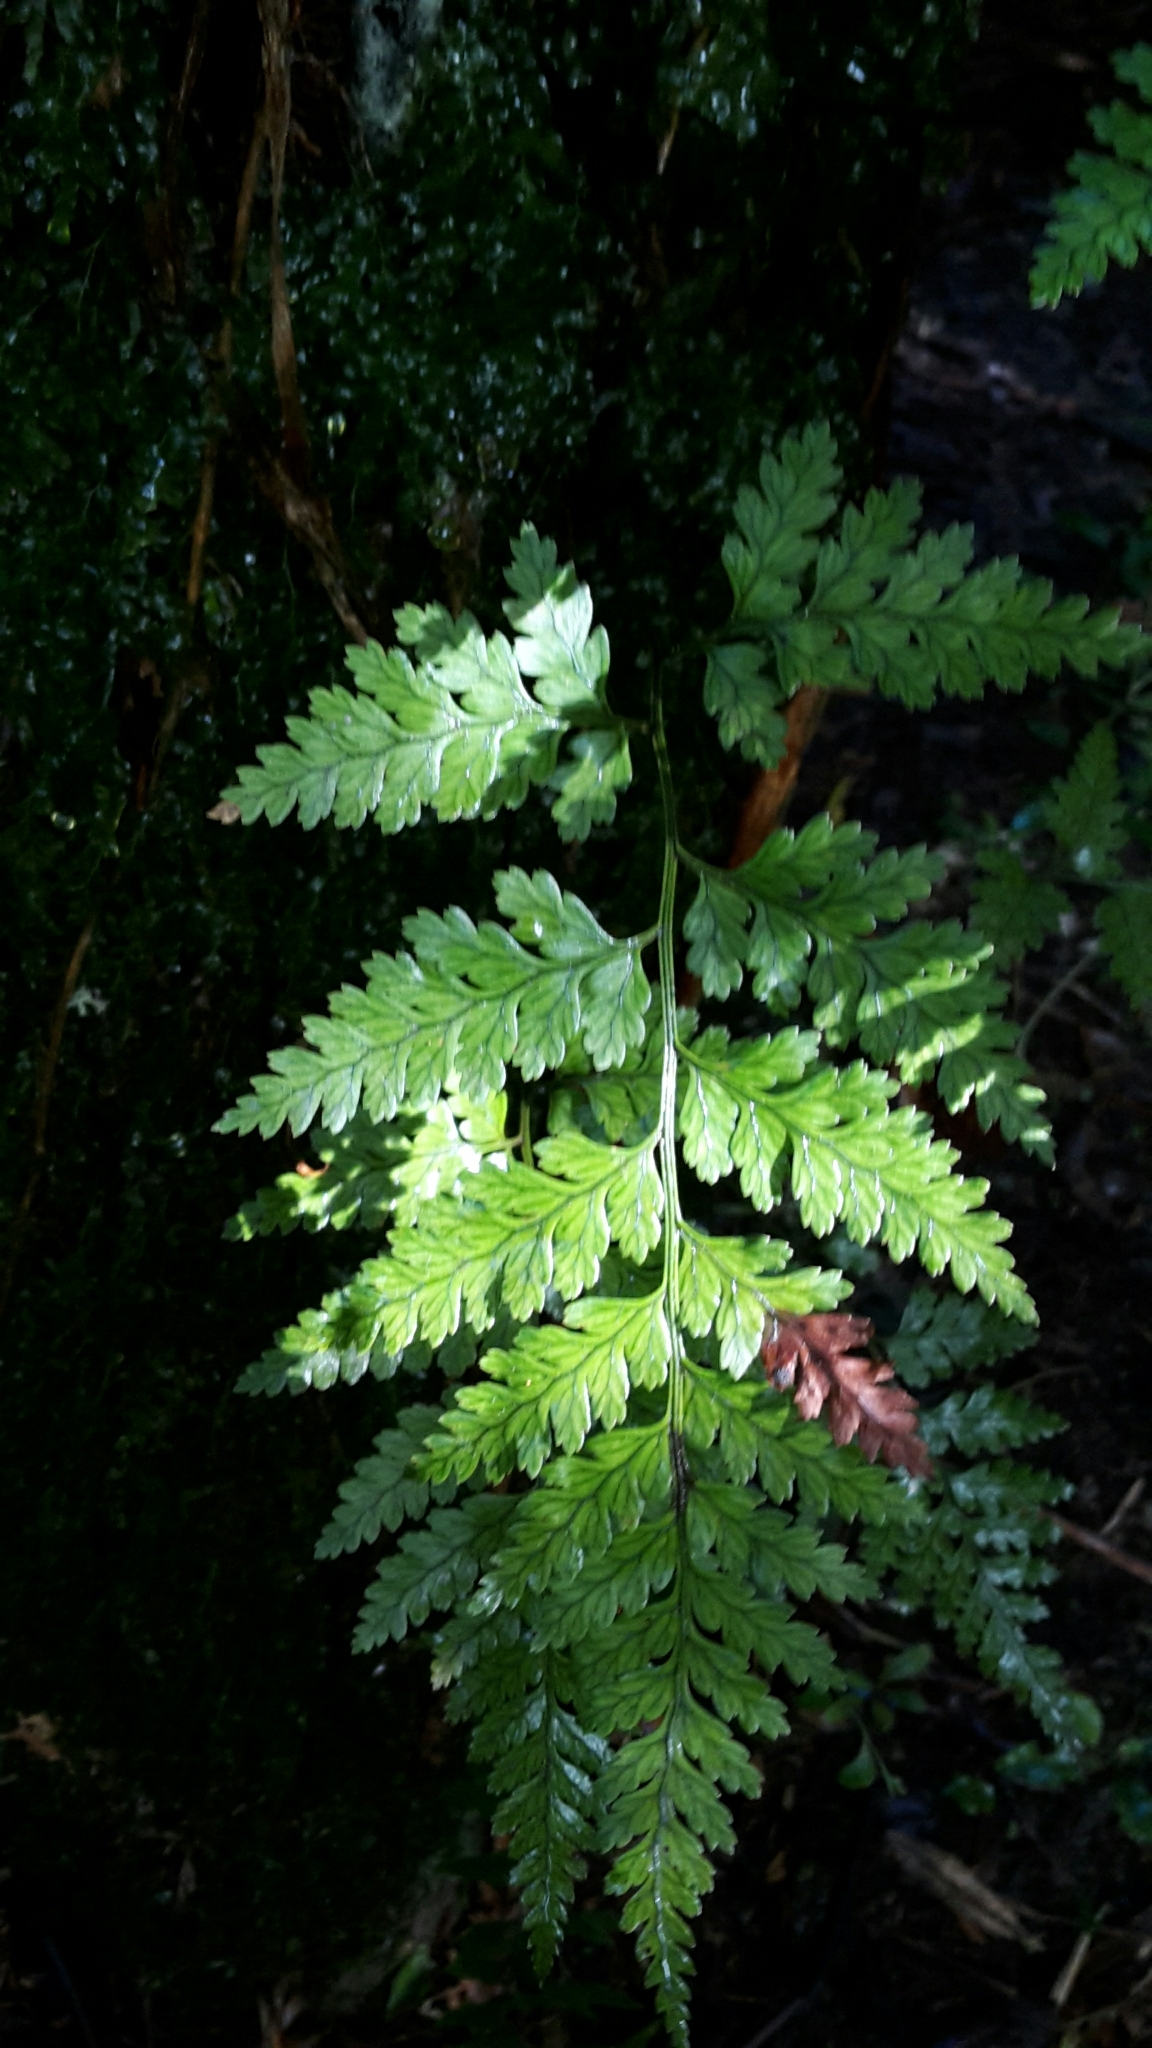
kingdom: Plantae
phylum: Tracheophyta
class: Polypodiopsida
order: Polypodiales
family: Dryopteridaceae
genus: Rumohra
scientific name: Rumohra adiantiformis
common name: Leather fern
